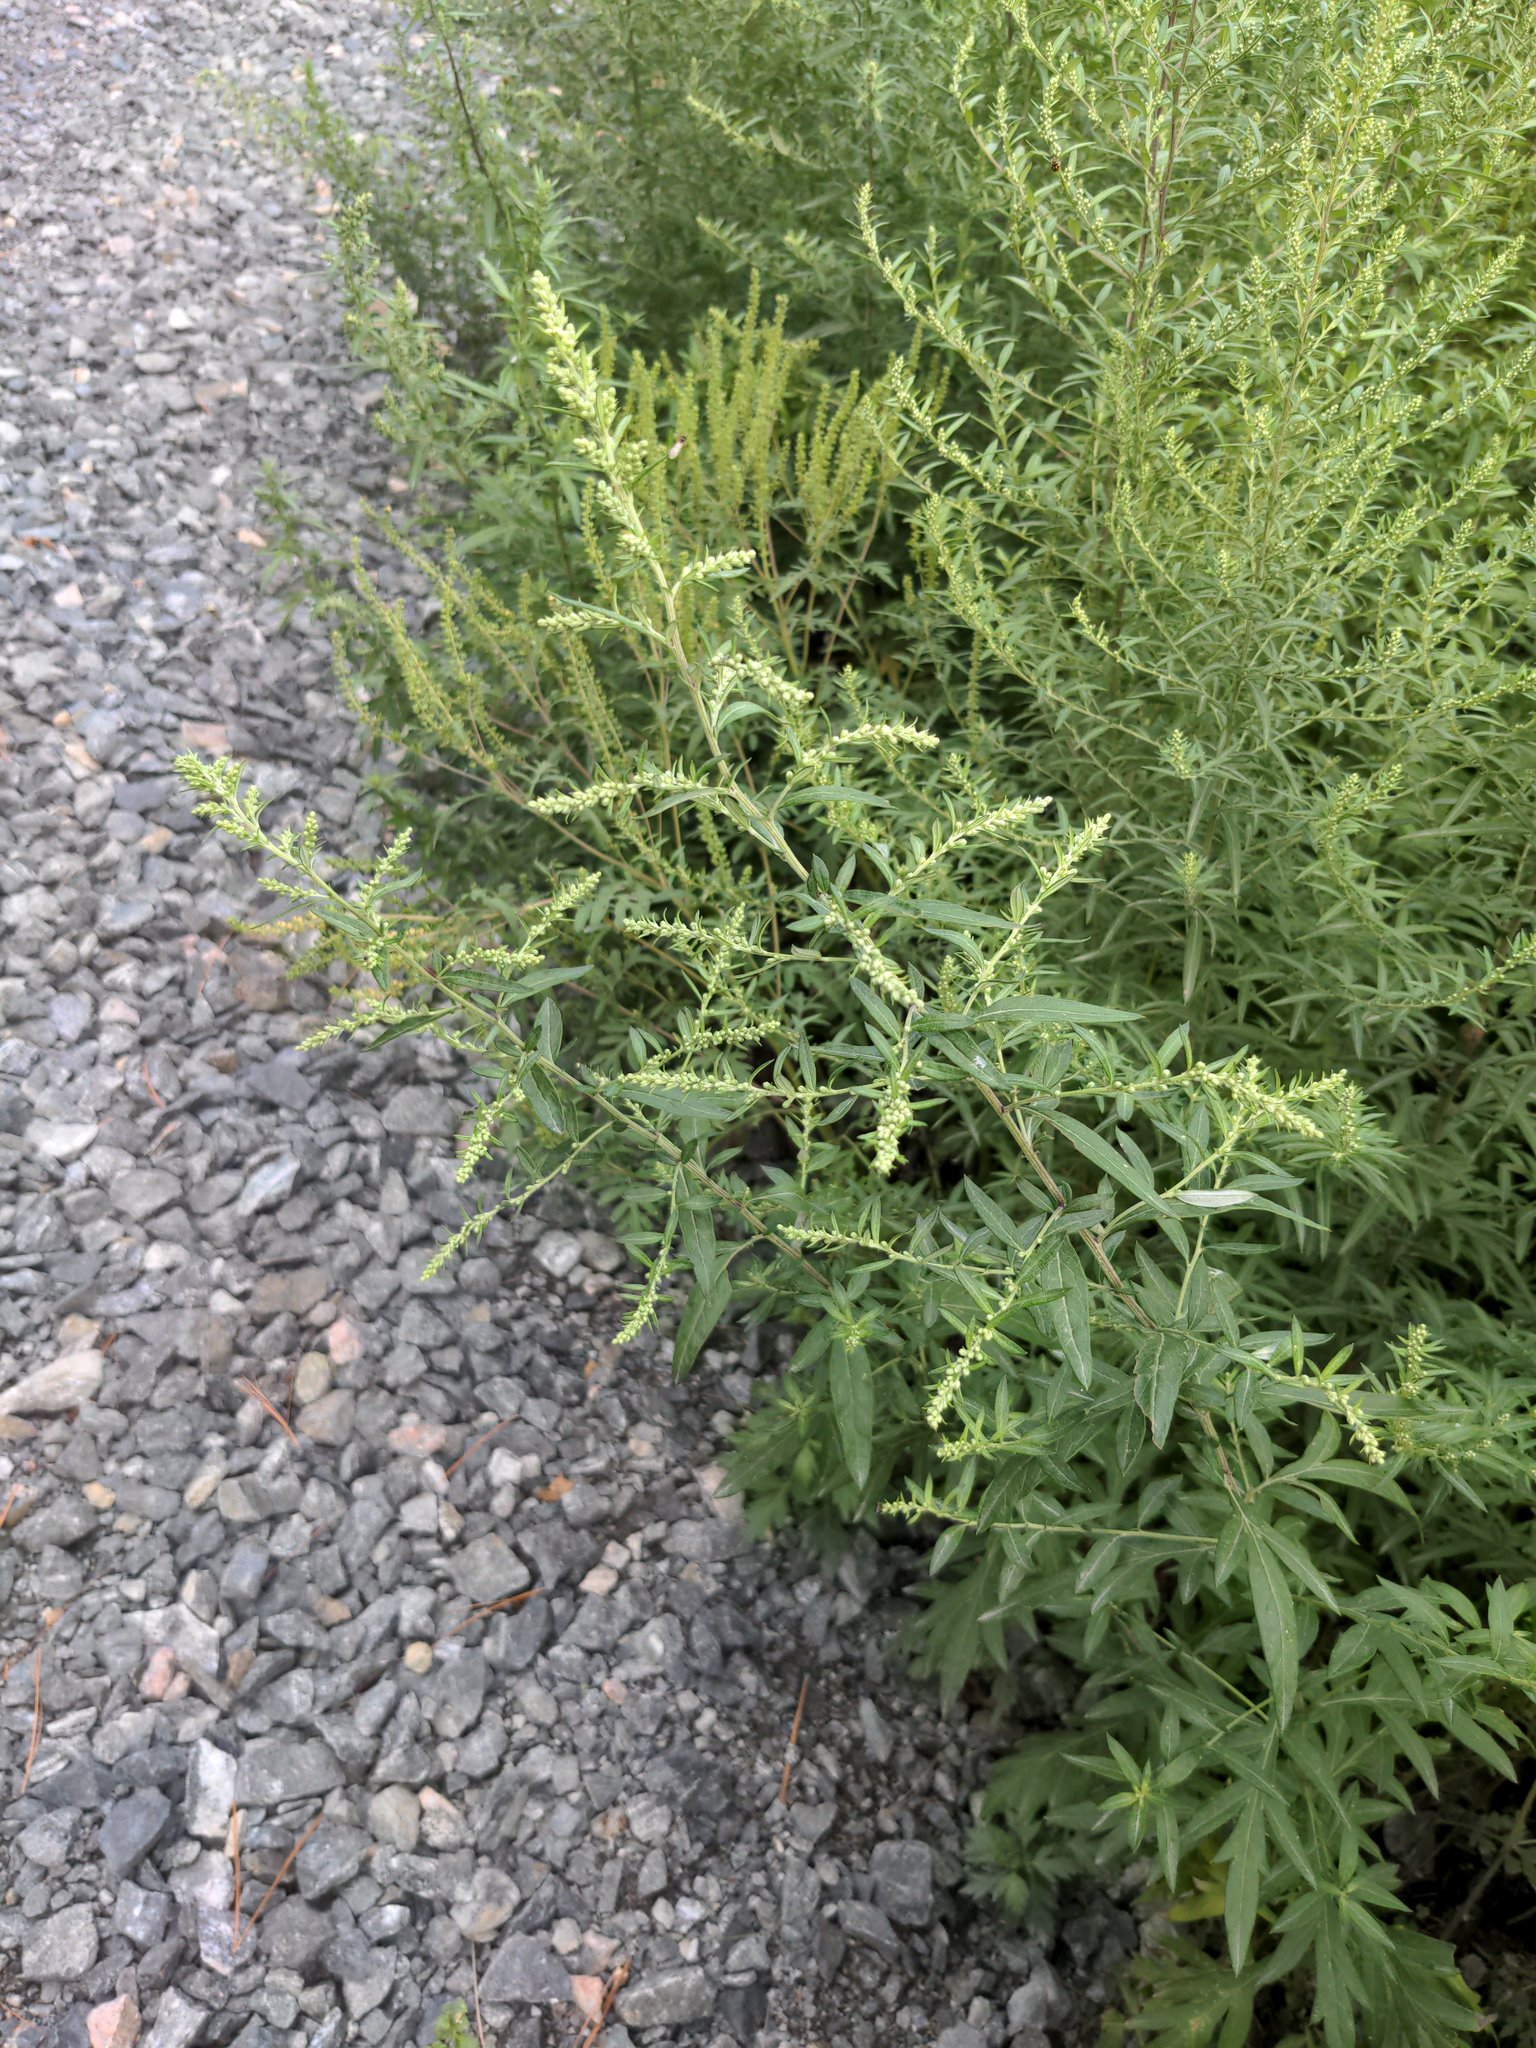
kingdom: Plantae
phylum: Tracheophyta
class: Magnoliopsida
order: Asterales
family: Asteraceae
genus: Artemisia
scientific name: Artemisia vulgaris
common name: Mugwort
